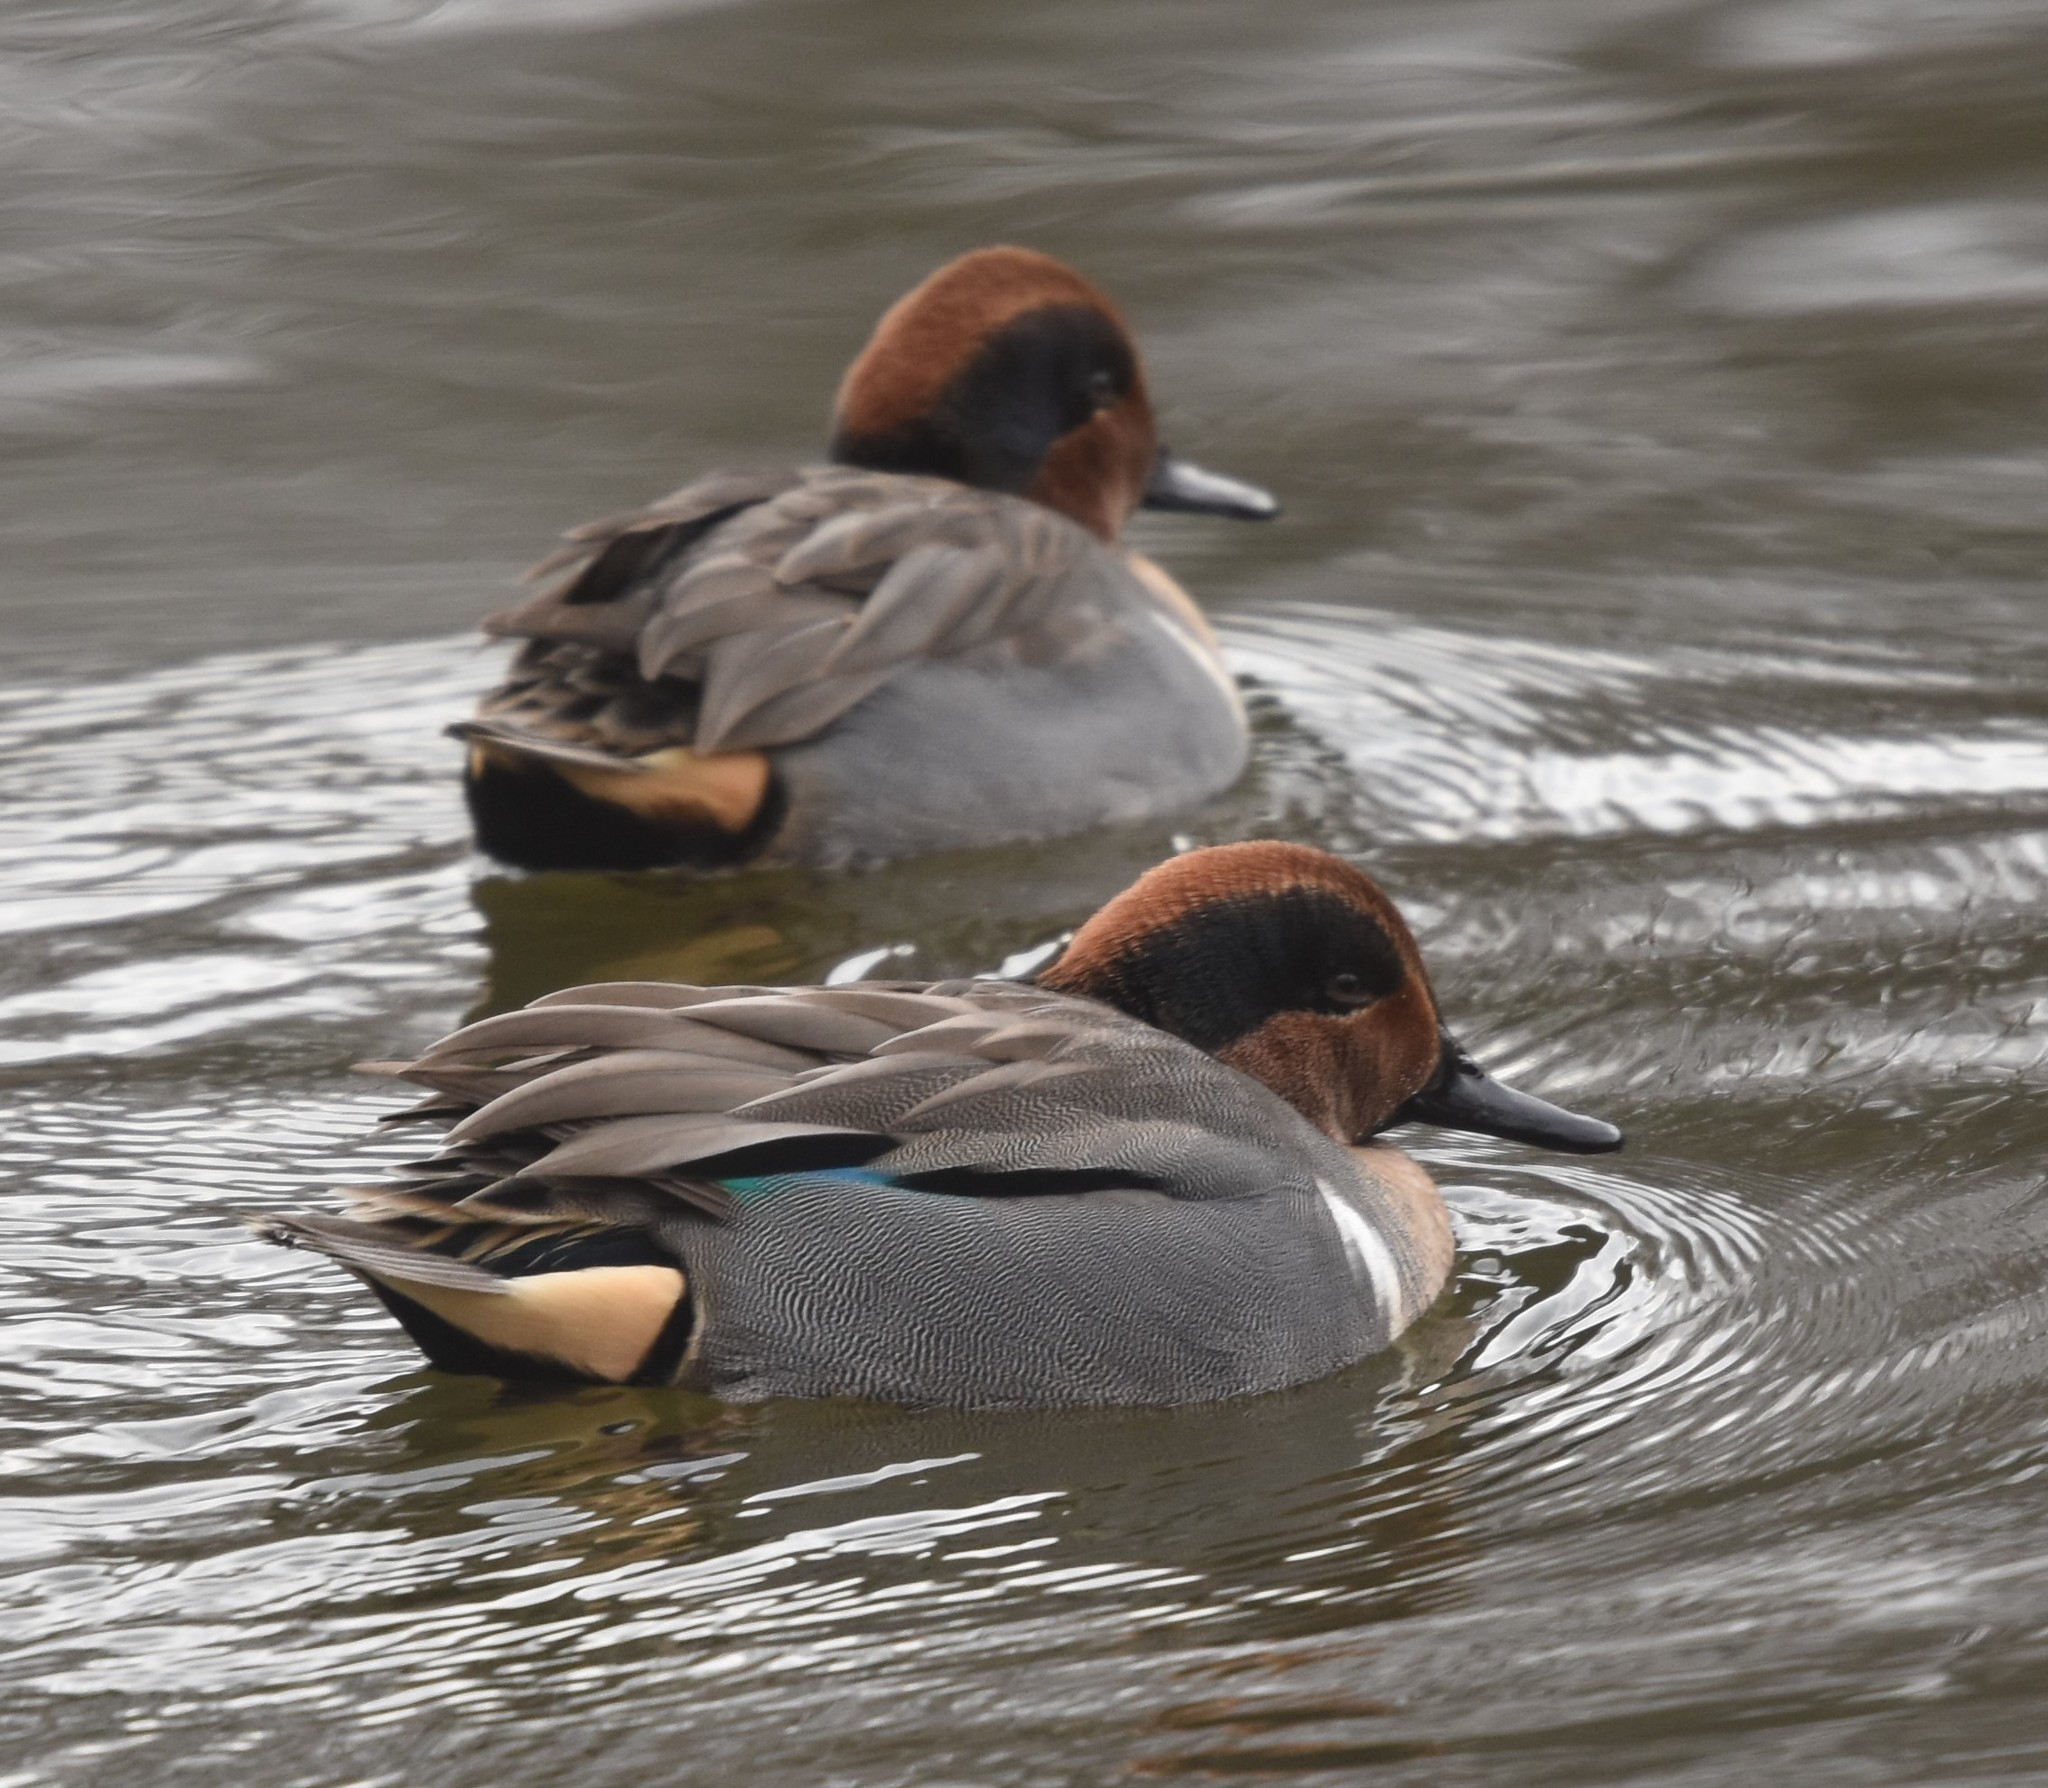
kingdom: Animalia
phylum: Chordata
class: Aves
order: Anseriformes
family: Anatidae
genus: Anas
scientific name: Anas crecca
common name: Eurasian teal
